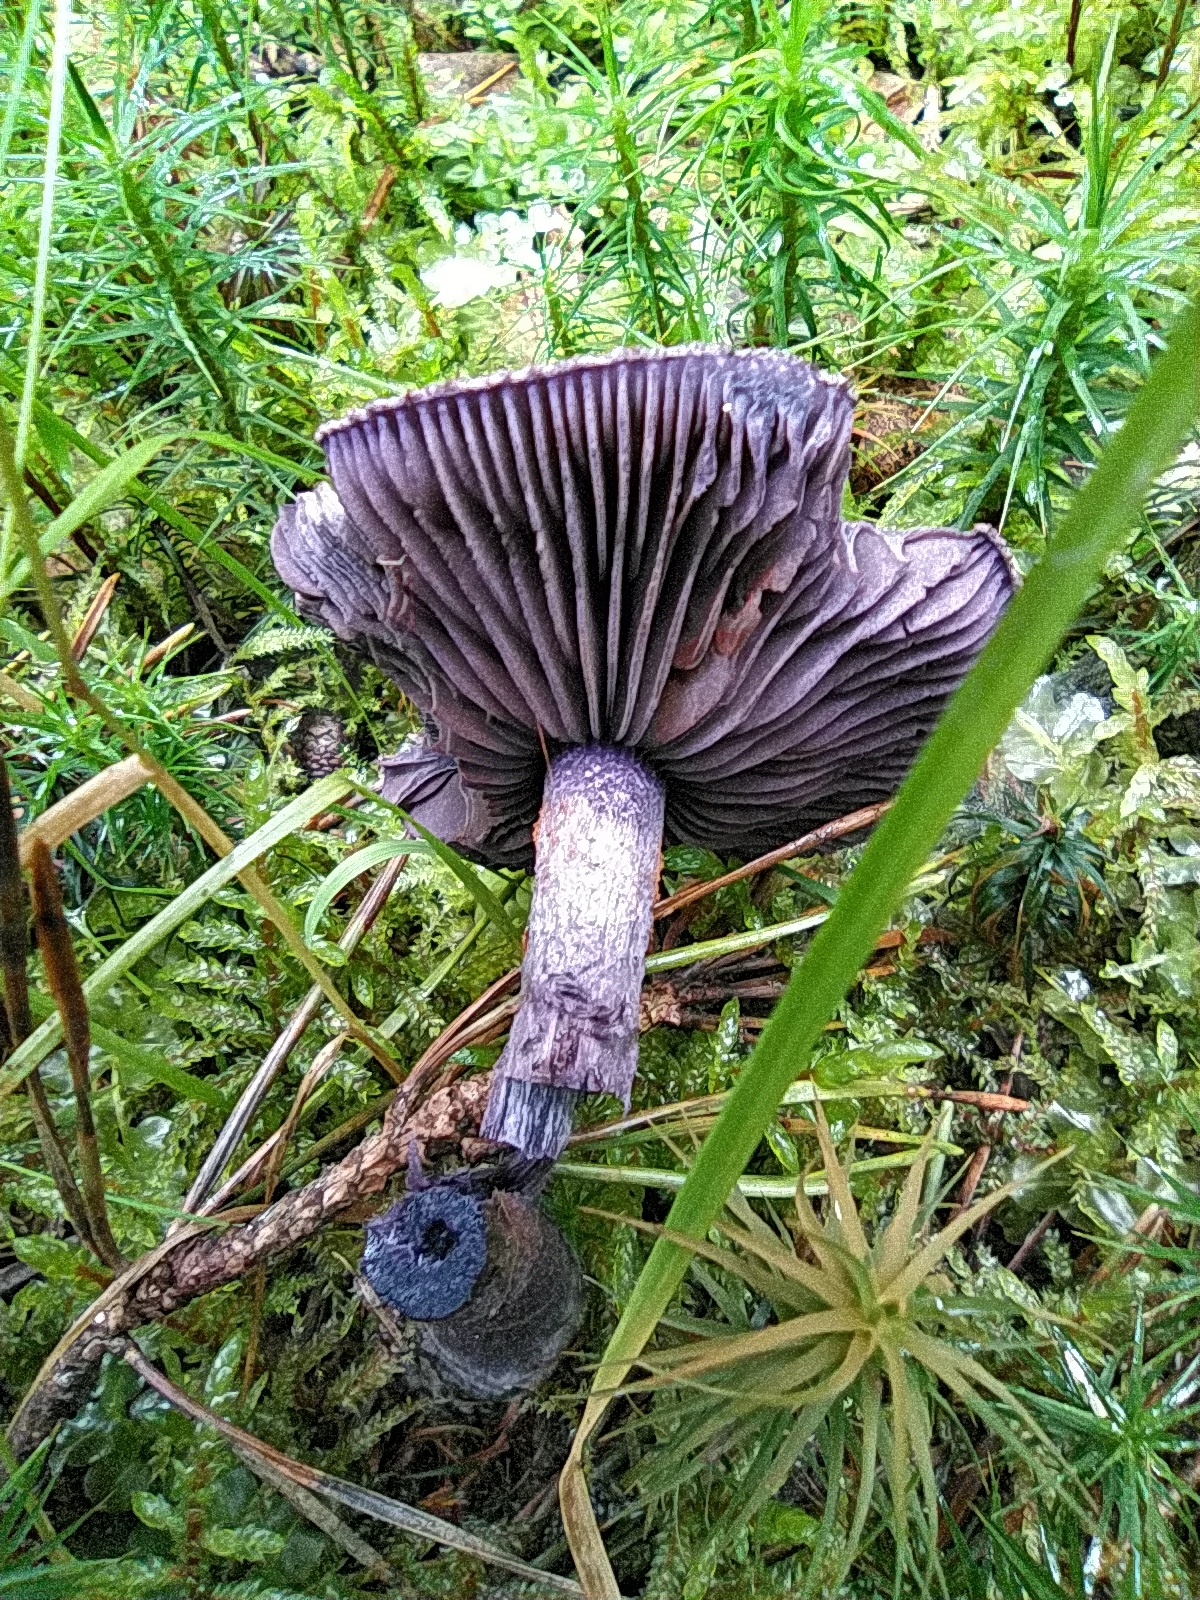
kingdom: Fungi
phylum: Basidiomycota
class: Agaricomycetes
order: Agaricales
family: Cortinariaceae
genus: Cortinarius
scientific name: Cortinarius violaceus
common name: Violet webcap
